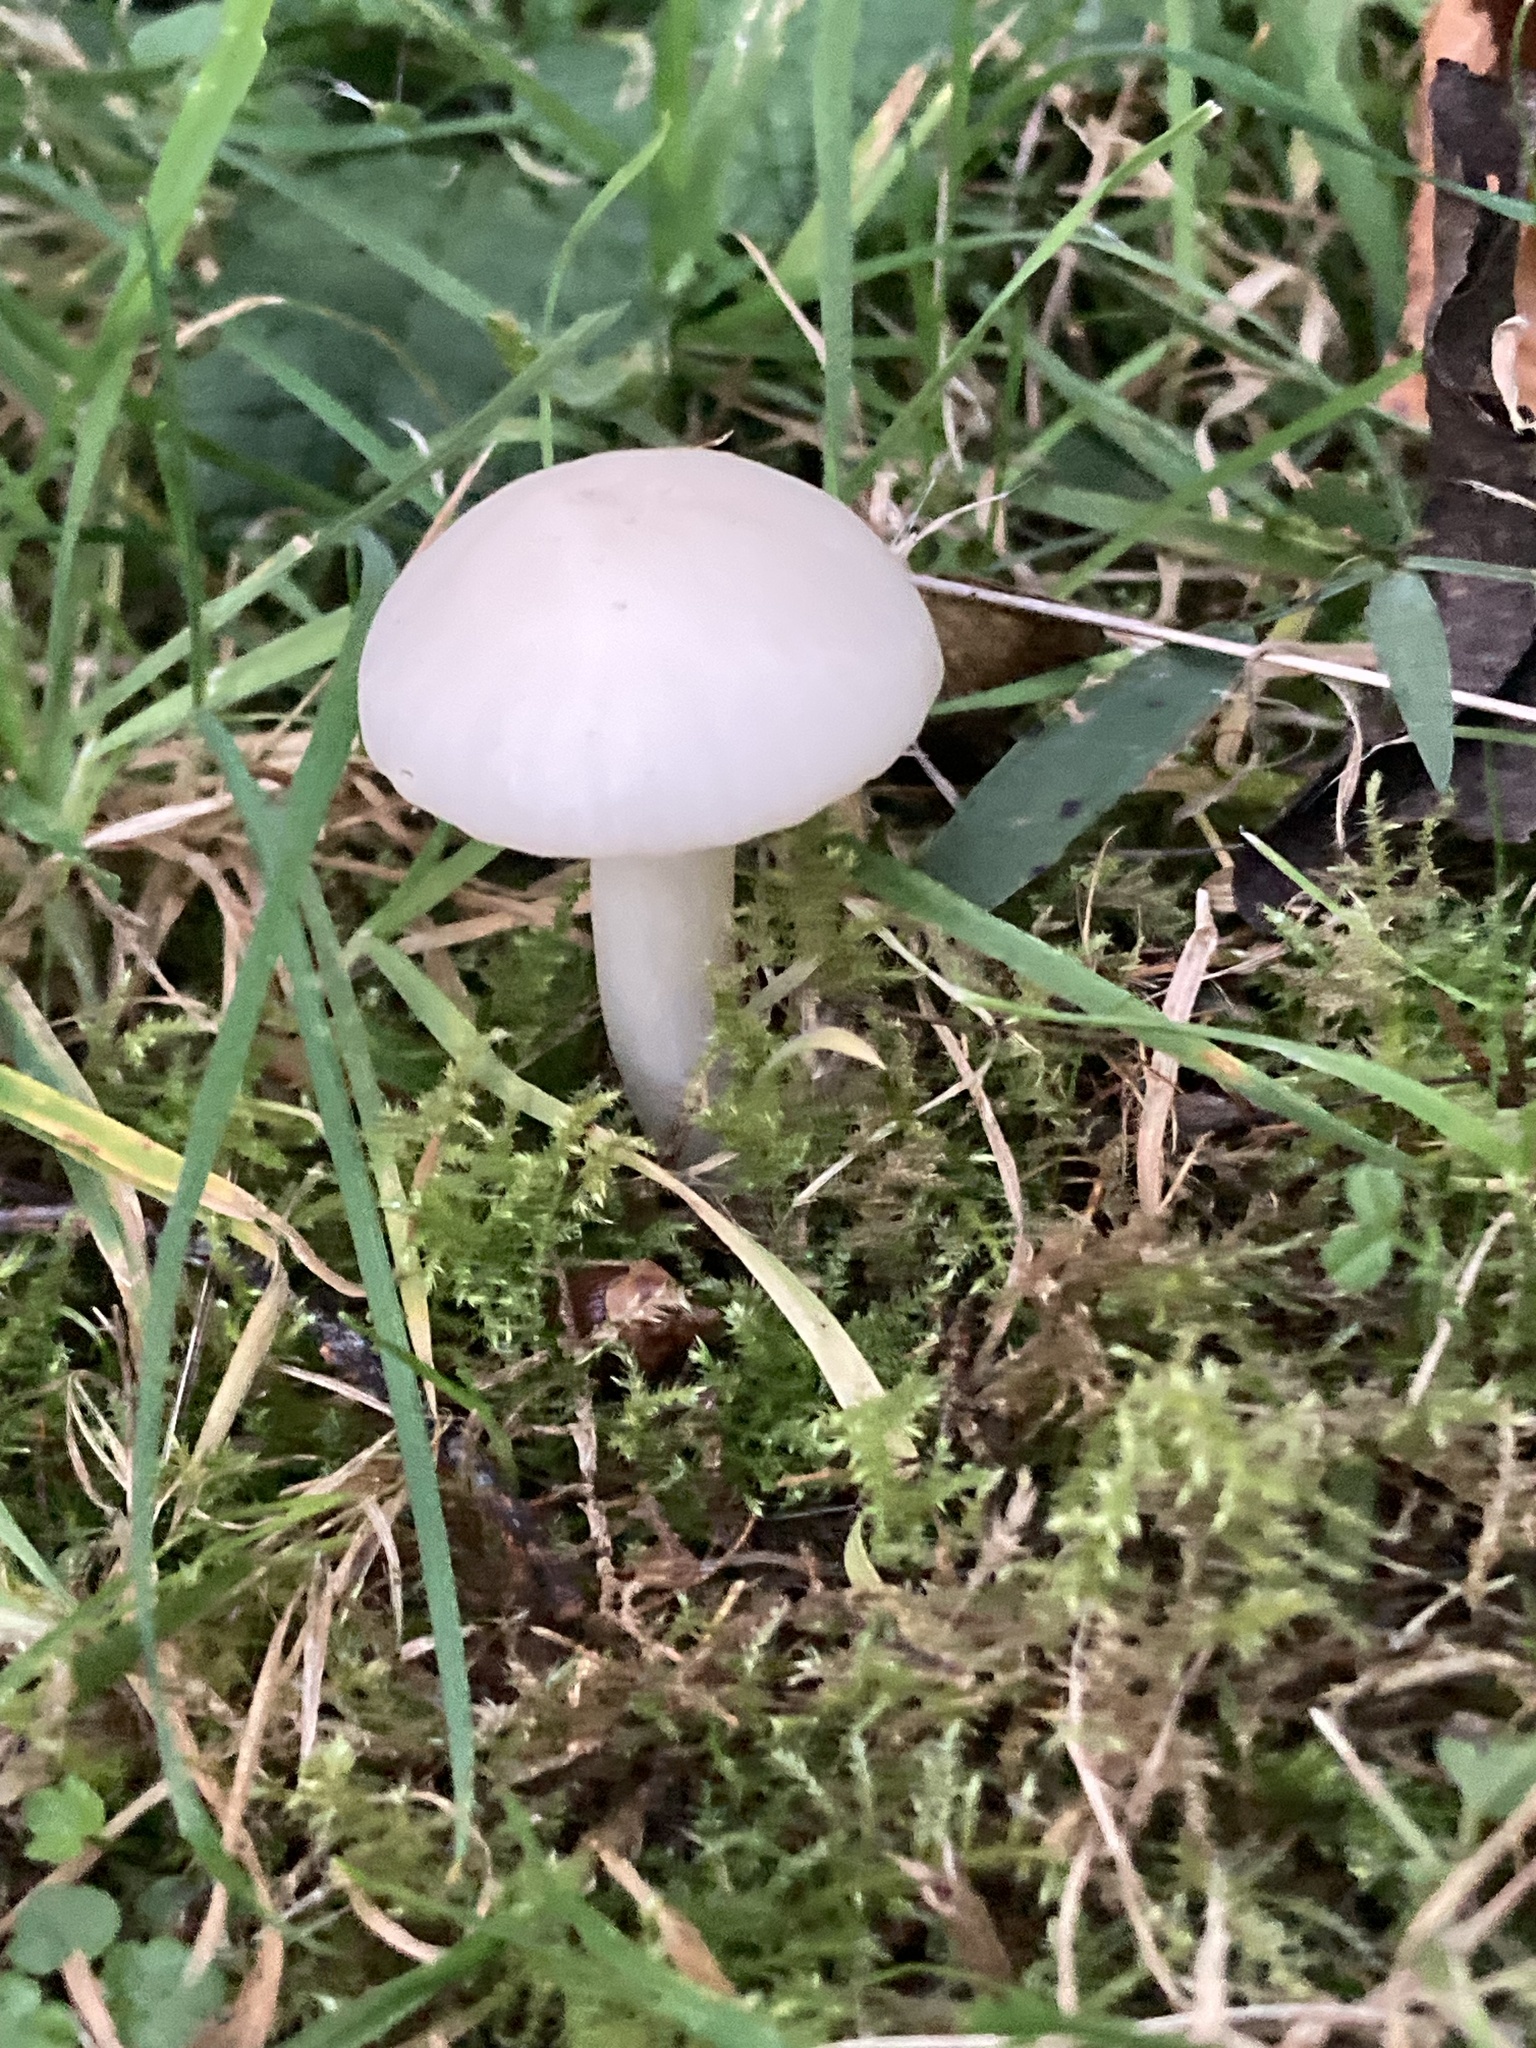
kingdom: Fungi
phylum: Basidiomycota
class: Agaricomycetes
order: Agaricales
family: Hygrophoraceae
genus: Cuphophyllus
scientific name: Cuphophyllus virgineus
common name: Snowy waxcap
